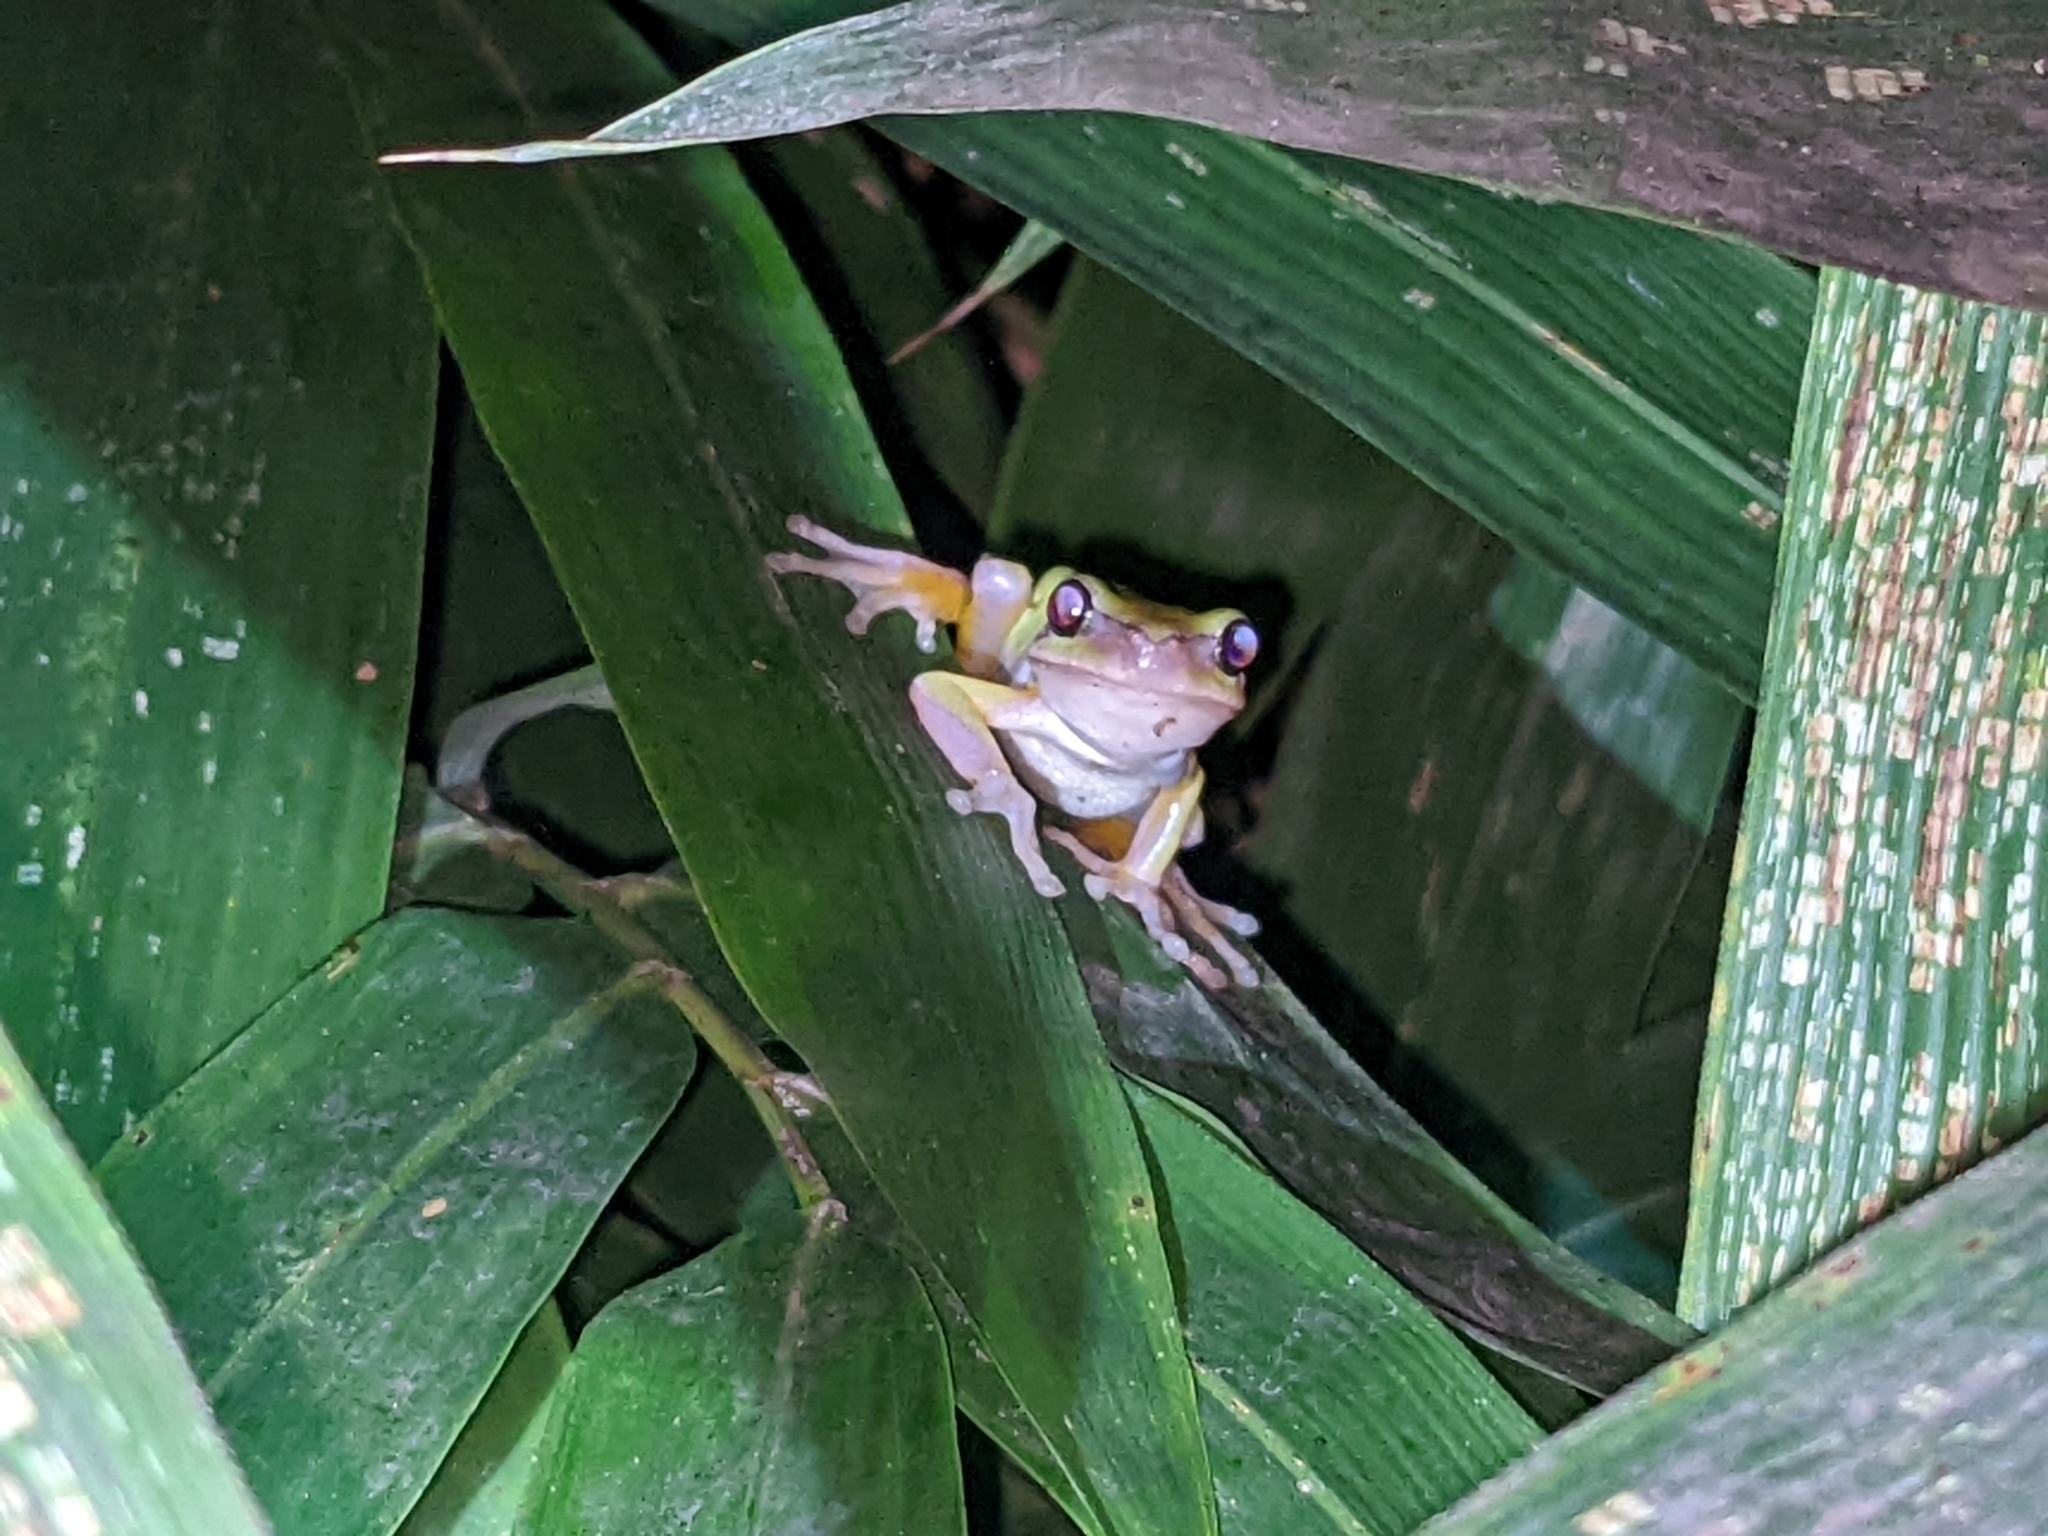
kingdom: Animalia
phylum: Chordata
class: Amphibia
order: Anura
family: Hylidae
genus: Hyla
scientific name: Hyla chinensis
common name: Common chinese treefrog
